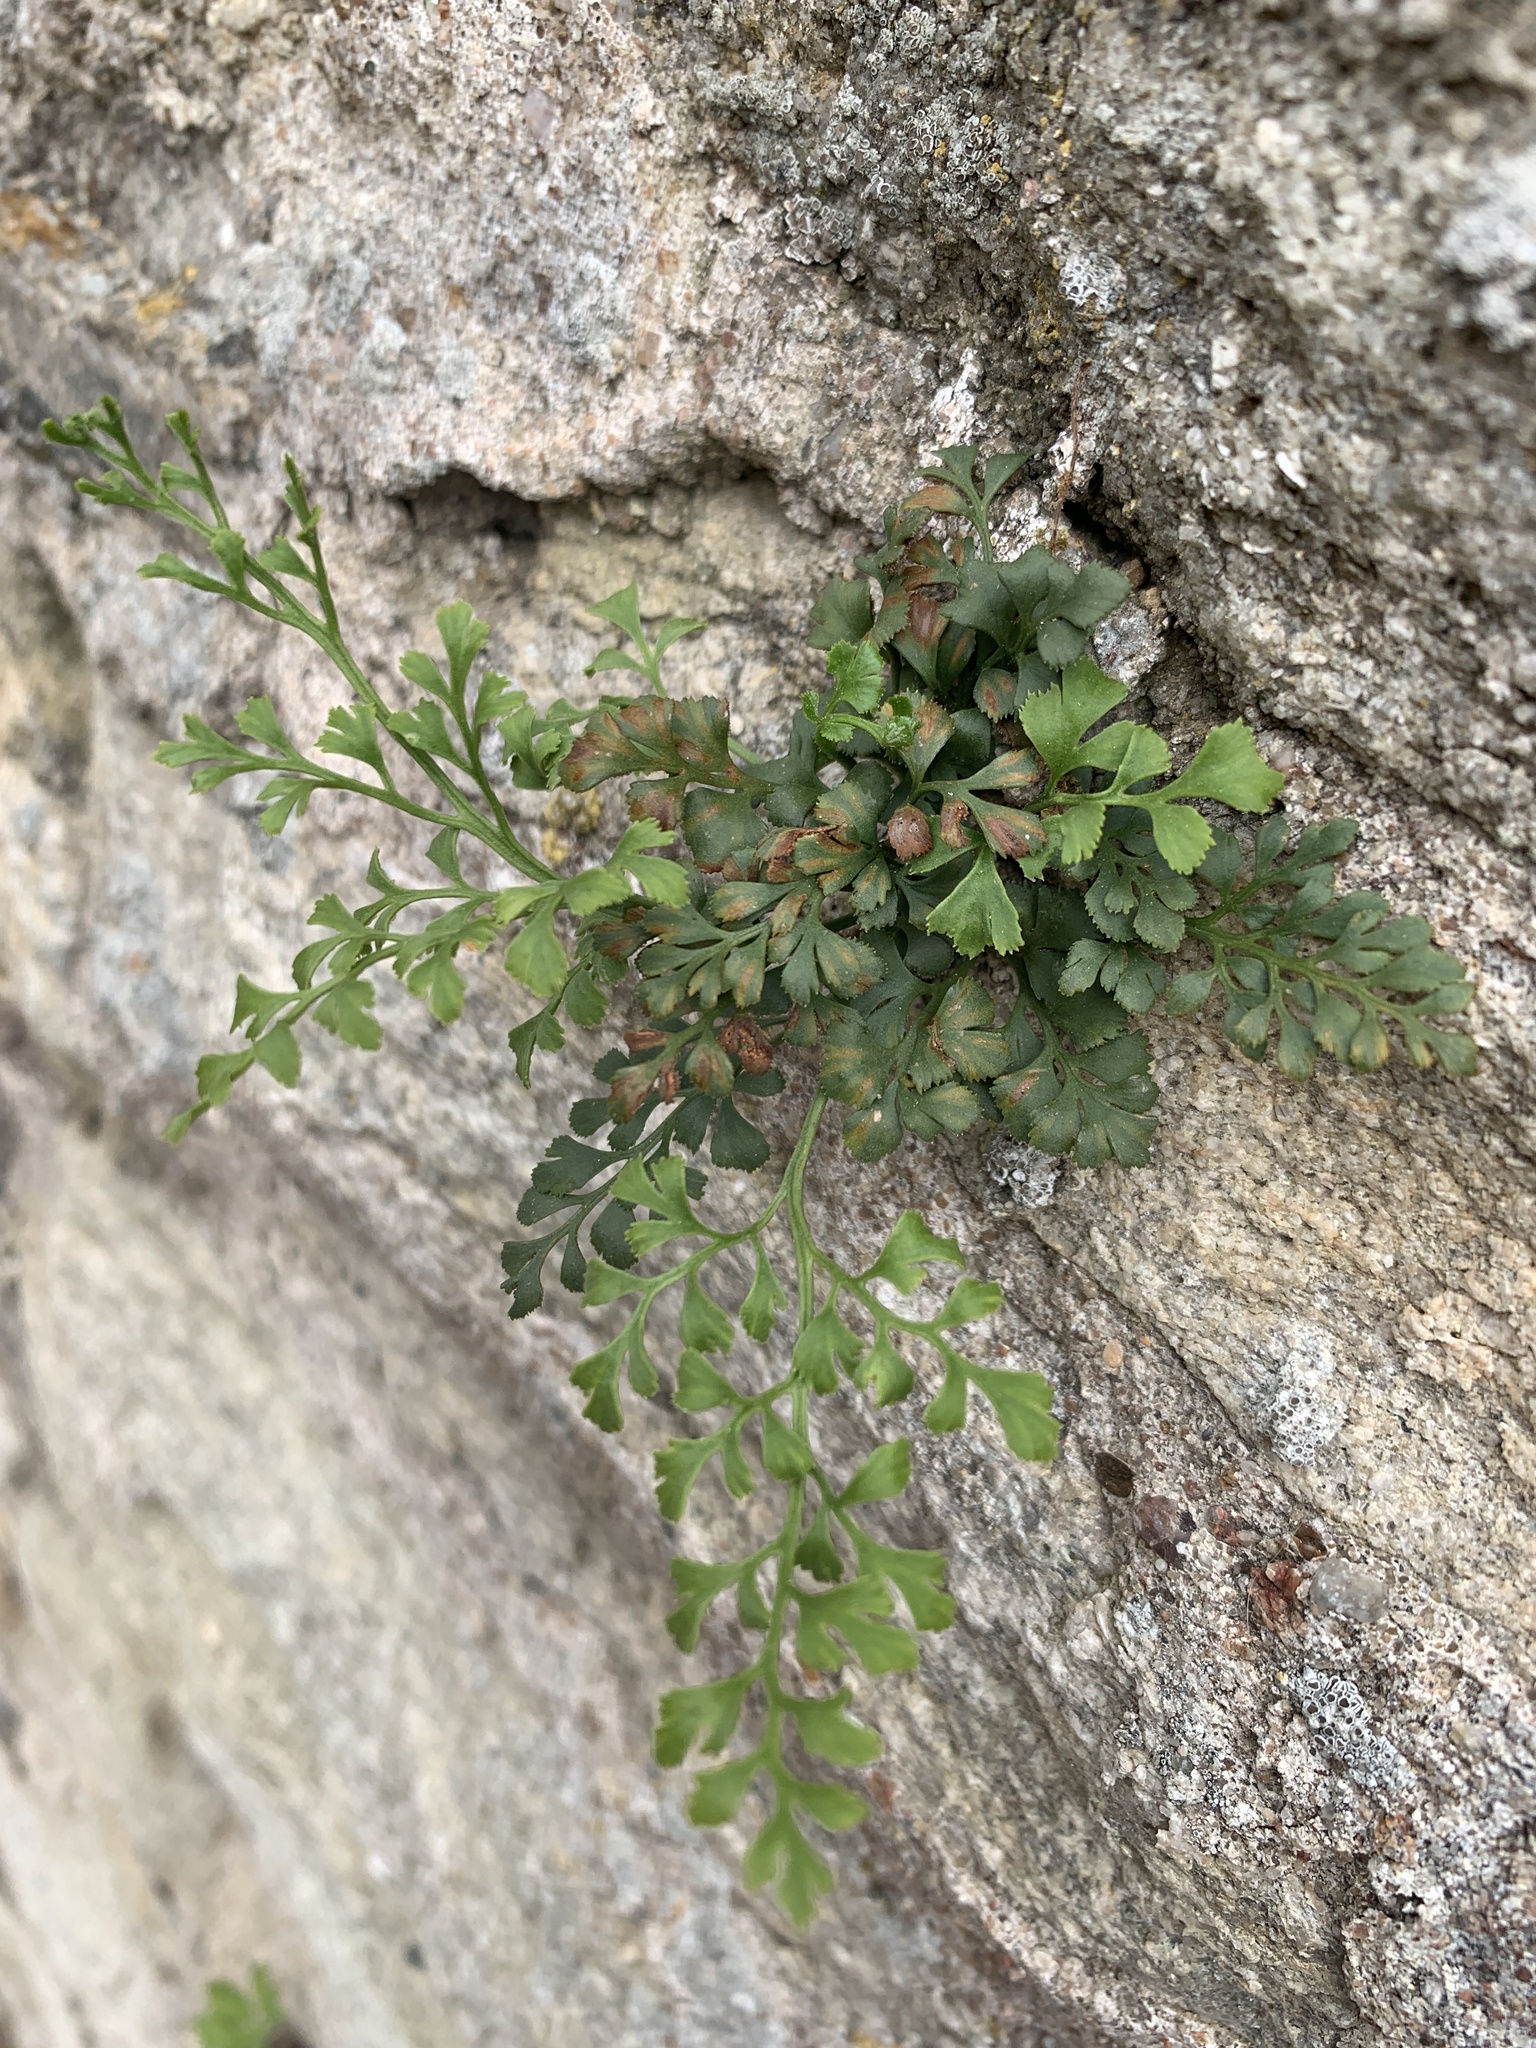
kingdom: Plantae
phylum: Tracheophyta
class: Polypodiopsida
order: Polypodiales
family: Aspleniaceae
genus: Asplenium
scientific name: Asplenium ruta-muraria
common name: Wall-rue
